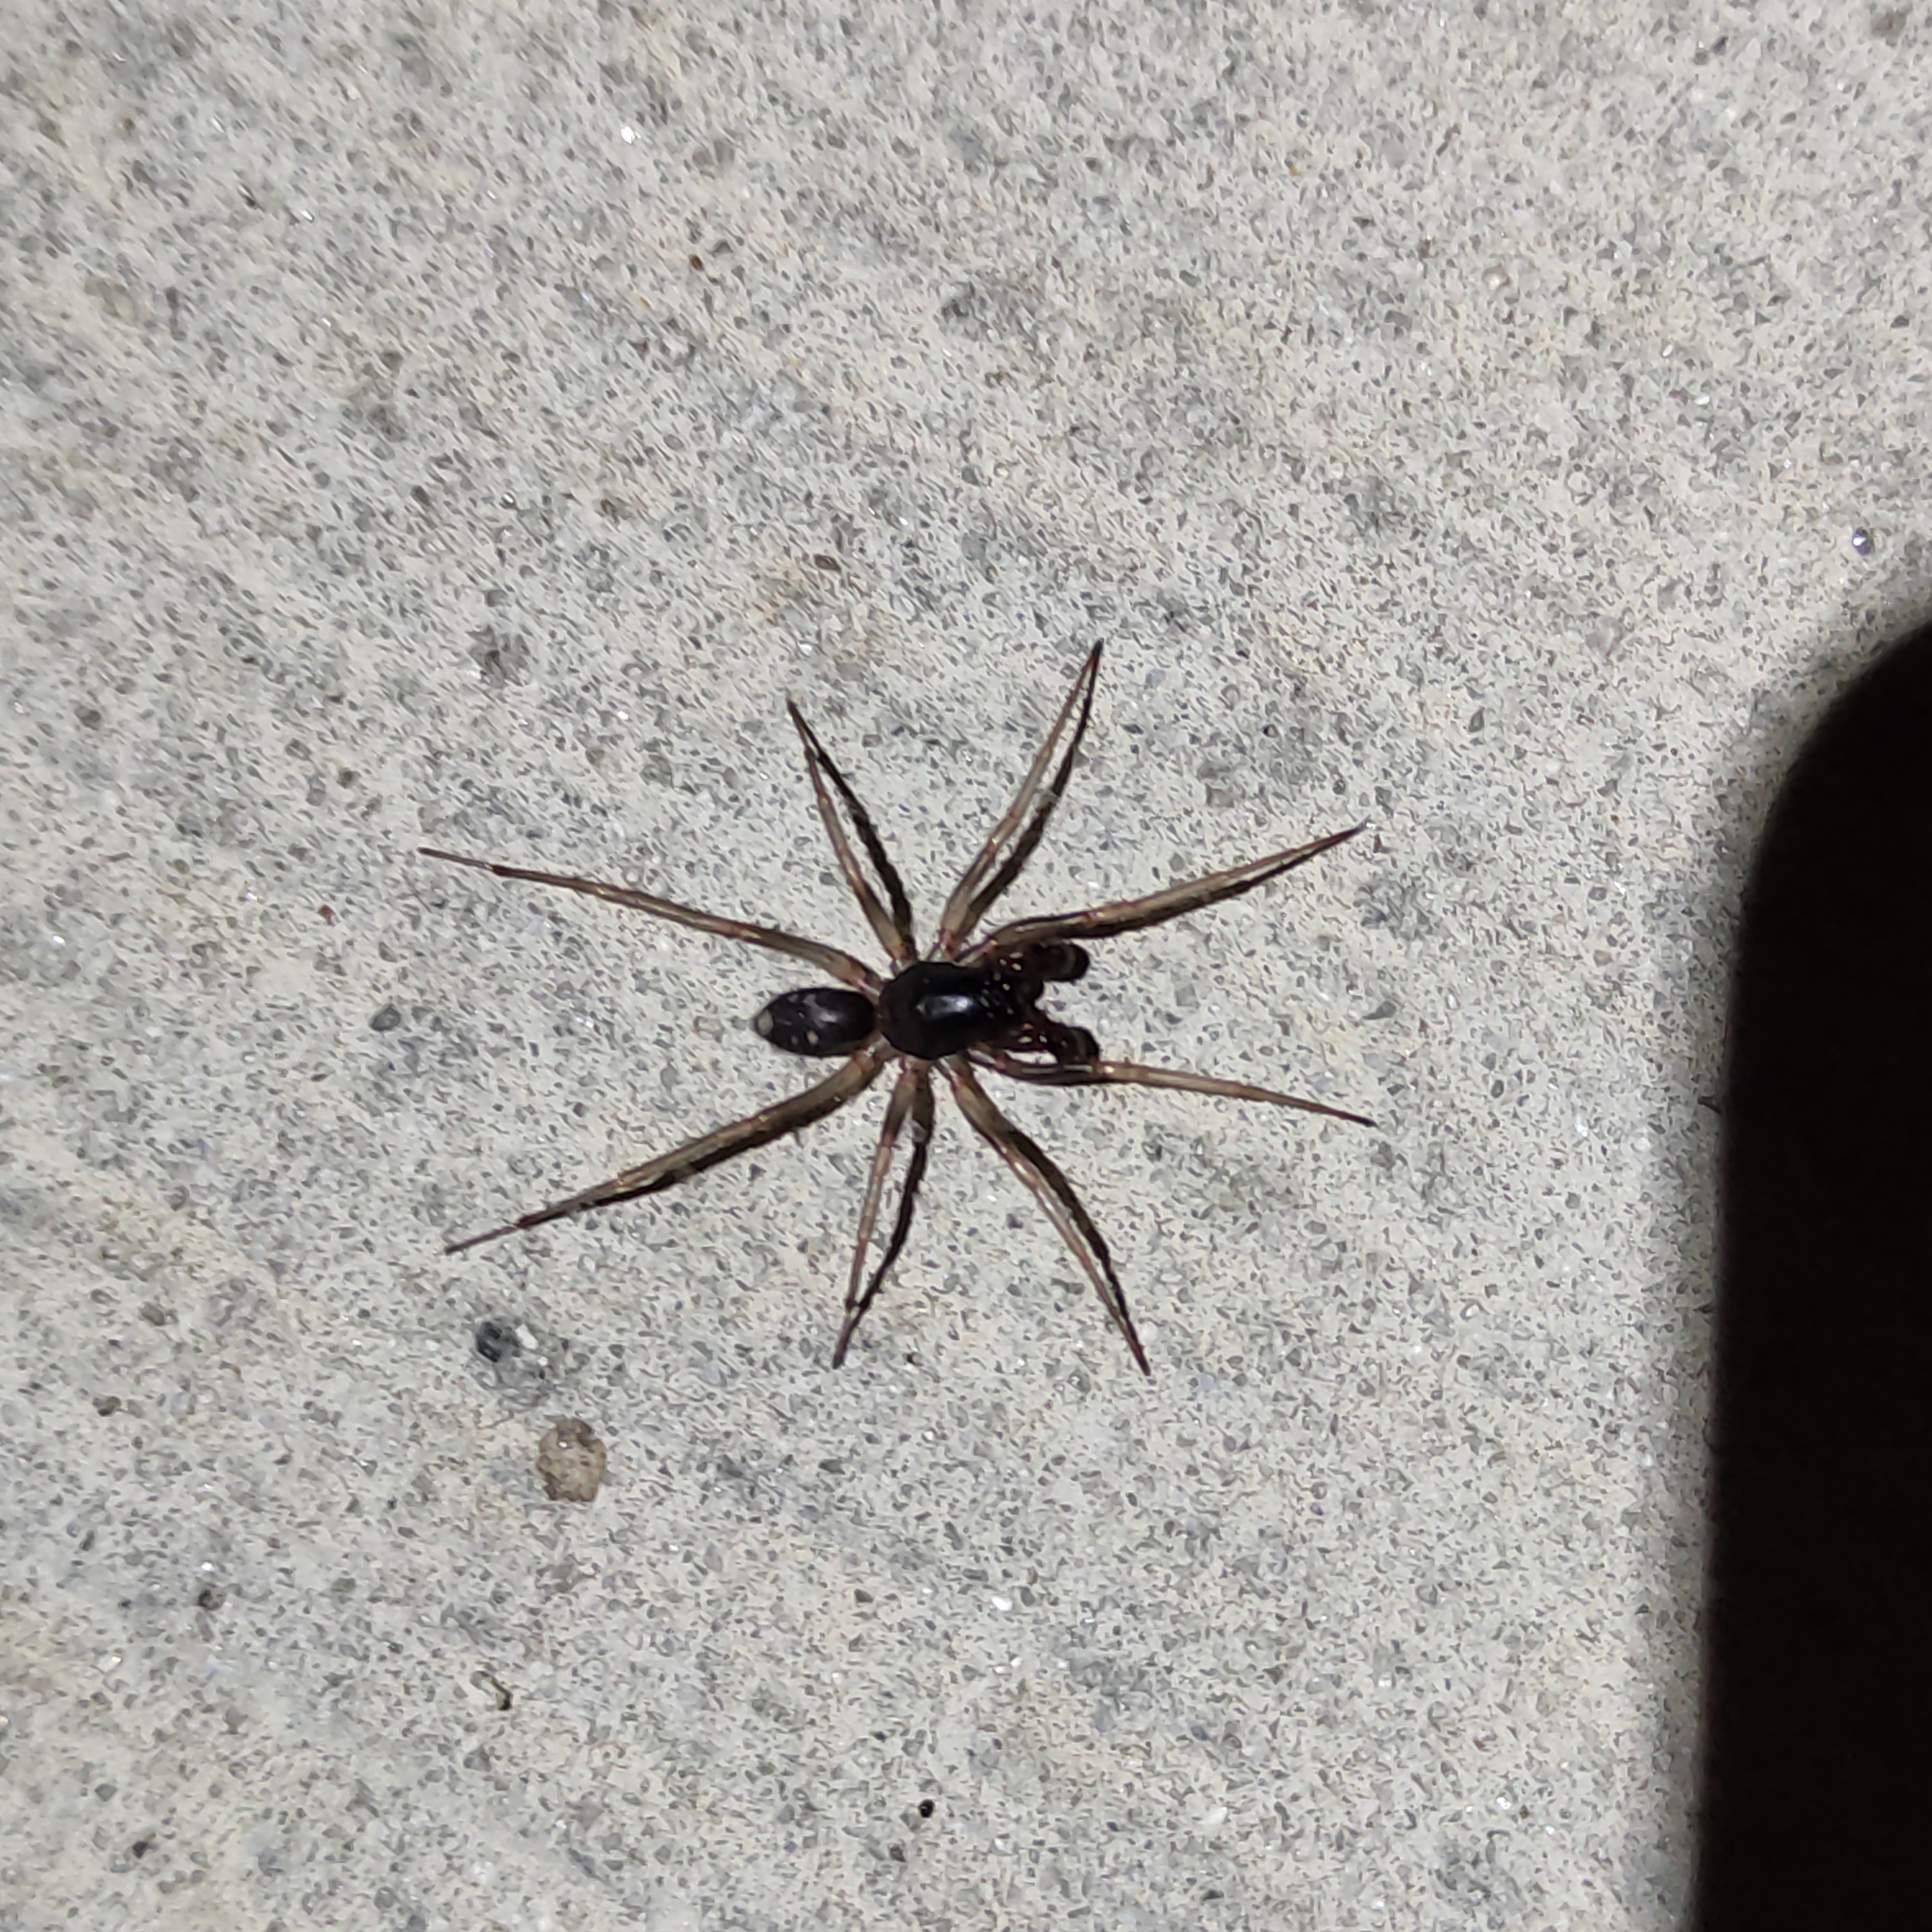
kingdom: Animalia
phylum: Arthropoda
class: Arachnida
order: Araneae
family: Corinnidae
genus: Falconina
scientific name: Falconina gracilis
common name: Antmimic spider
